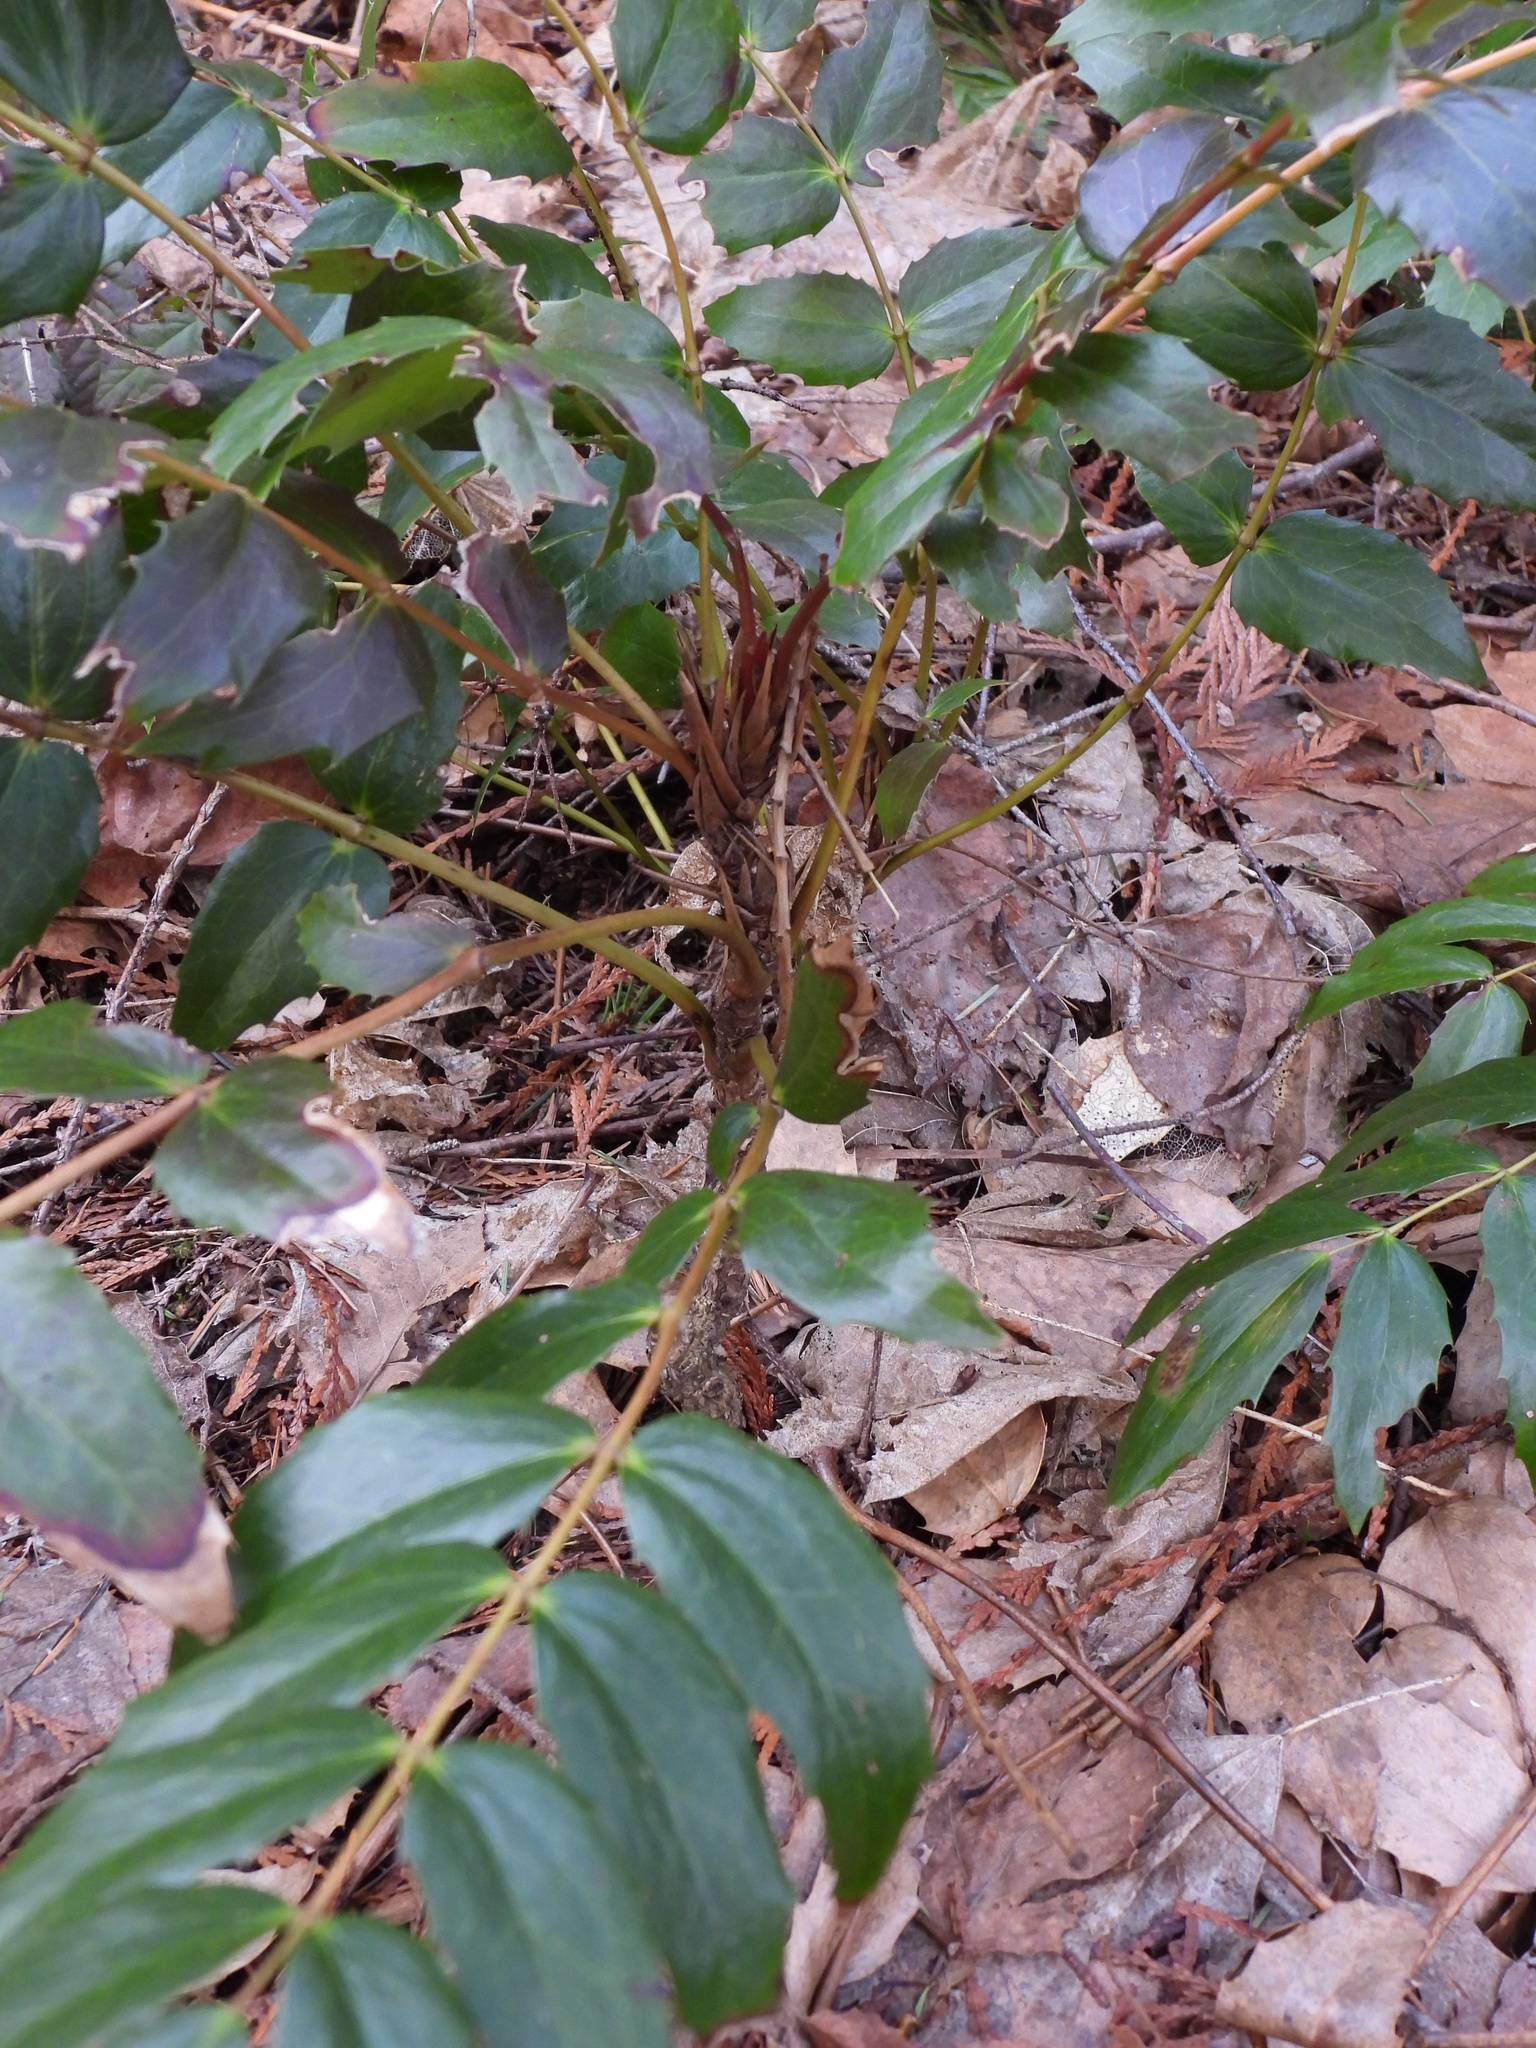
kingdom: Plantae
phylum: Tracheophyta
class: Magnoliopsida
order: Ranunculales
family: Berberidaceae
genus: Mahonia
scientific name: Mahonia nervosa
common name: Cascade oregon-grape
